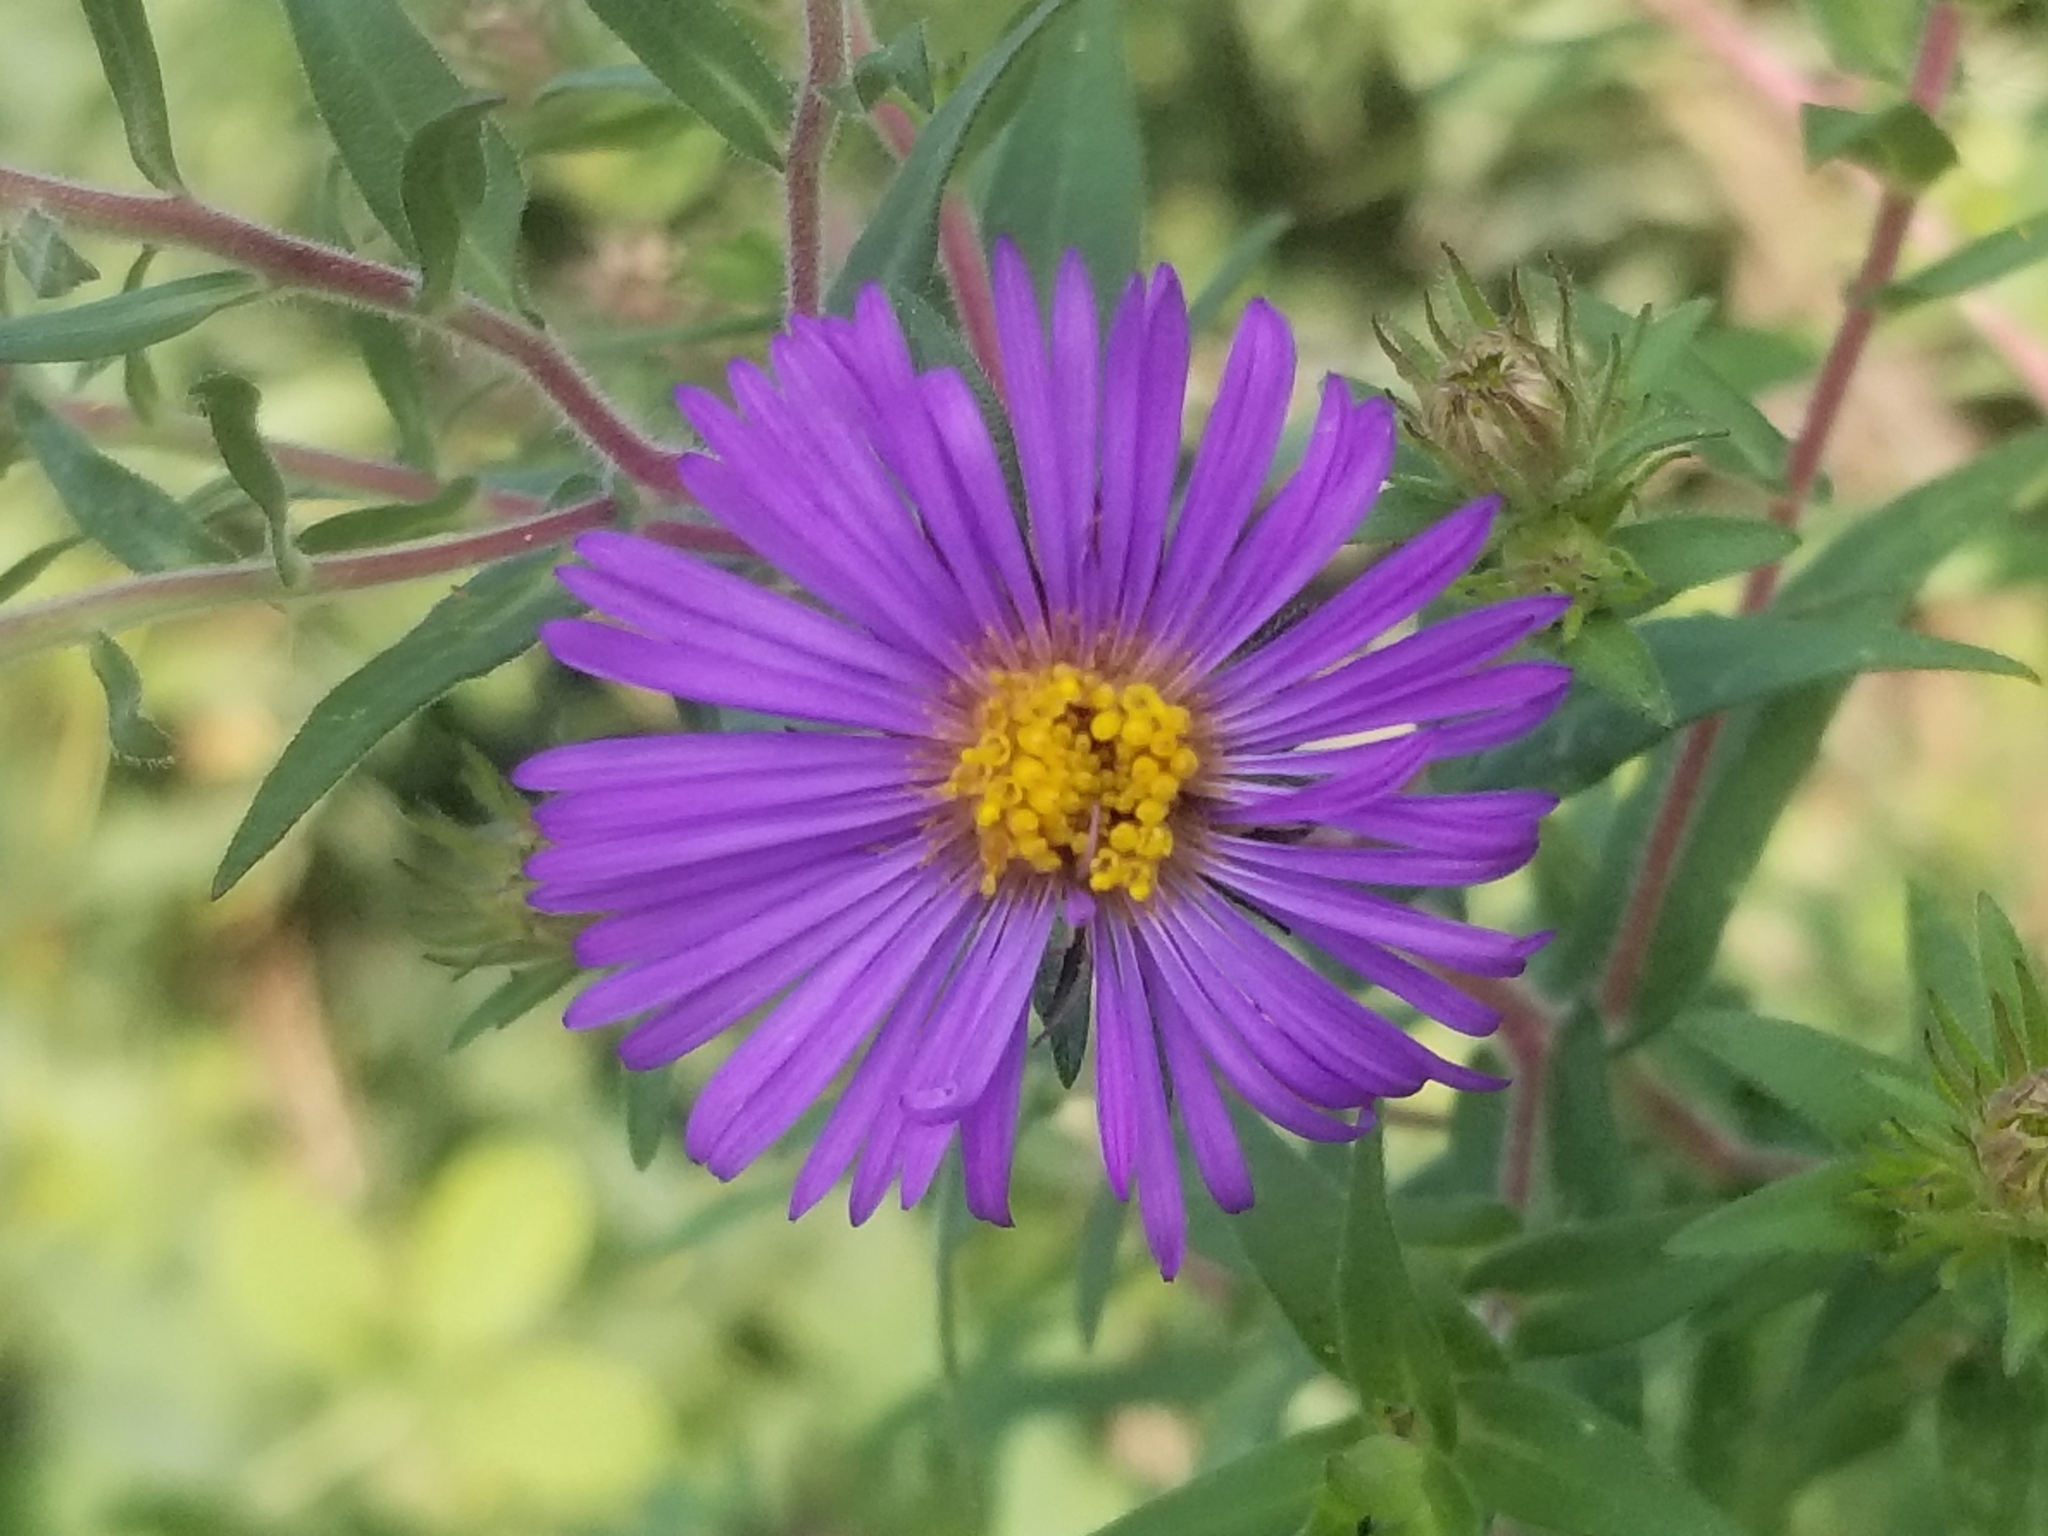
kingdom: Plantae
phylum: Tracheophyta
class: Magnoliopsida
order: Asterales
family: Asteraceae
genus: Symphyotrichum
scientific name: Symphyotrichum novae-angliae
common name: Michaelmas daisy
